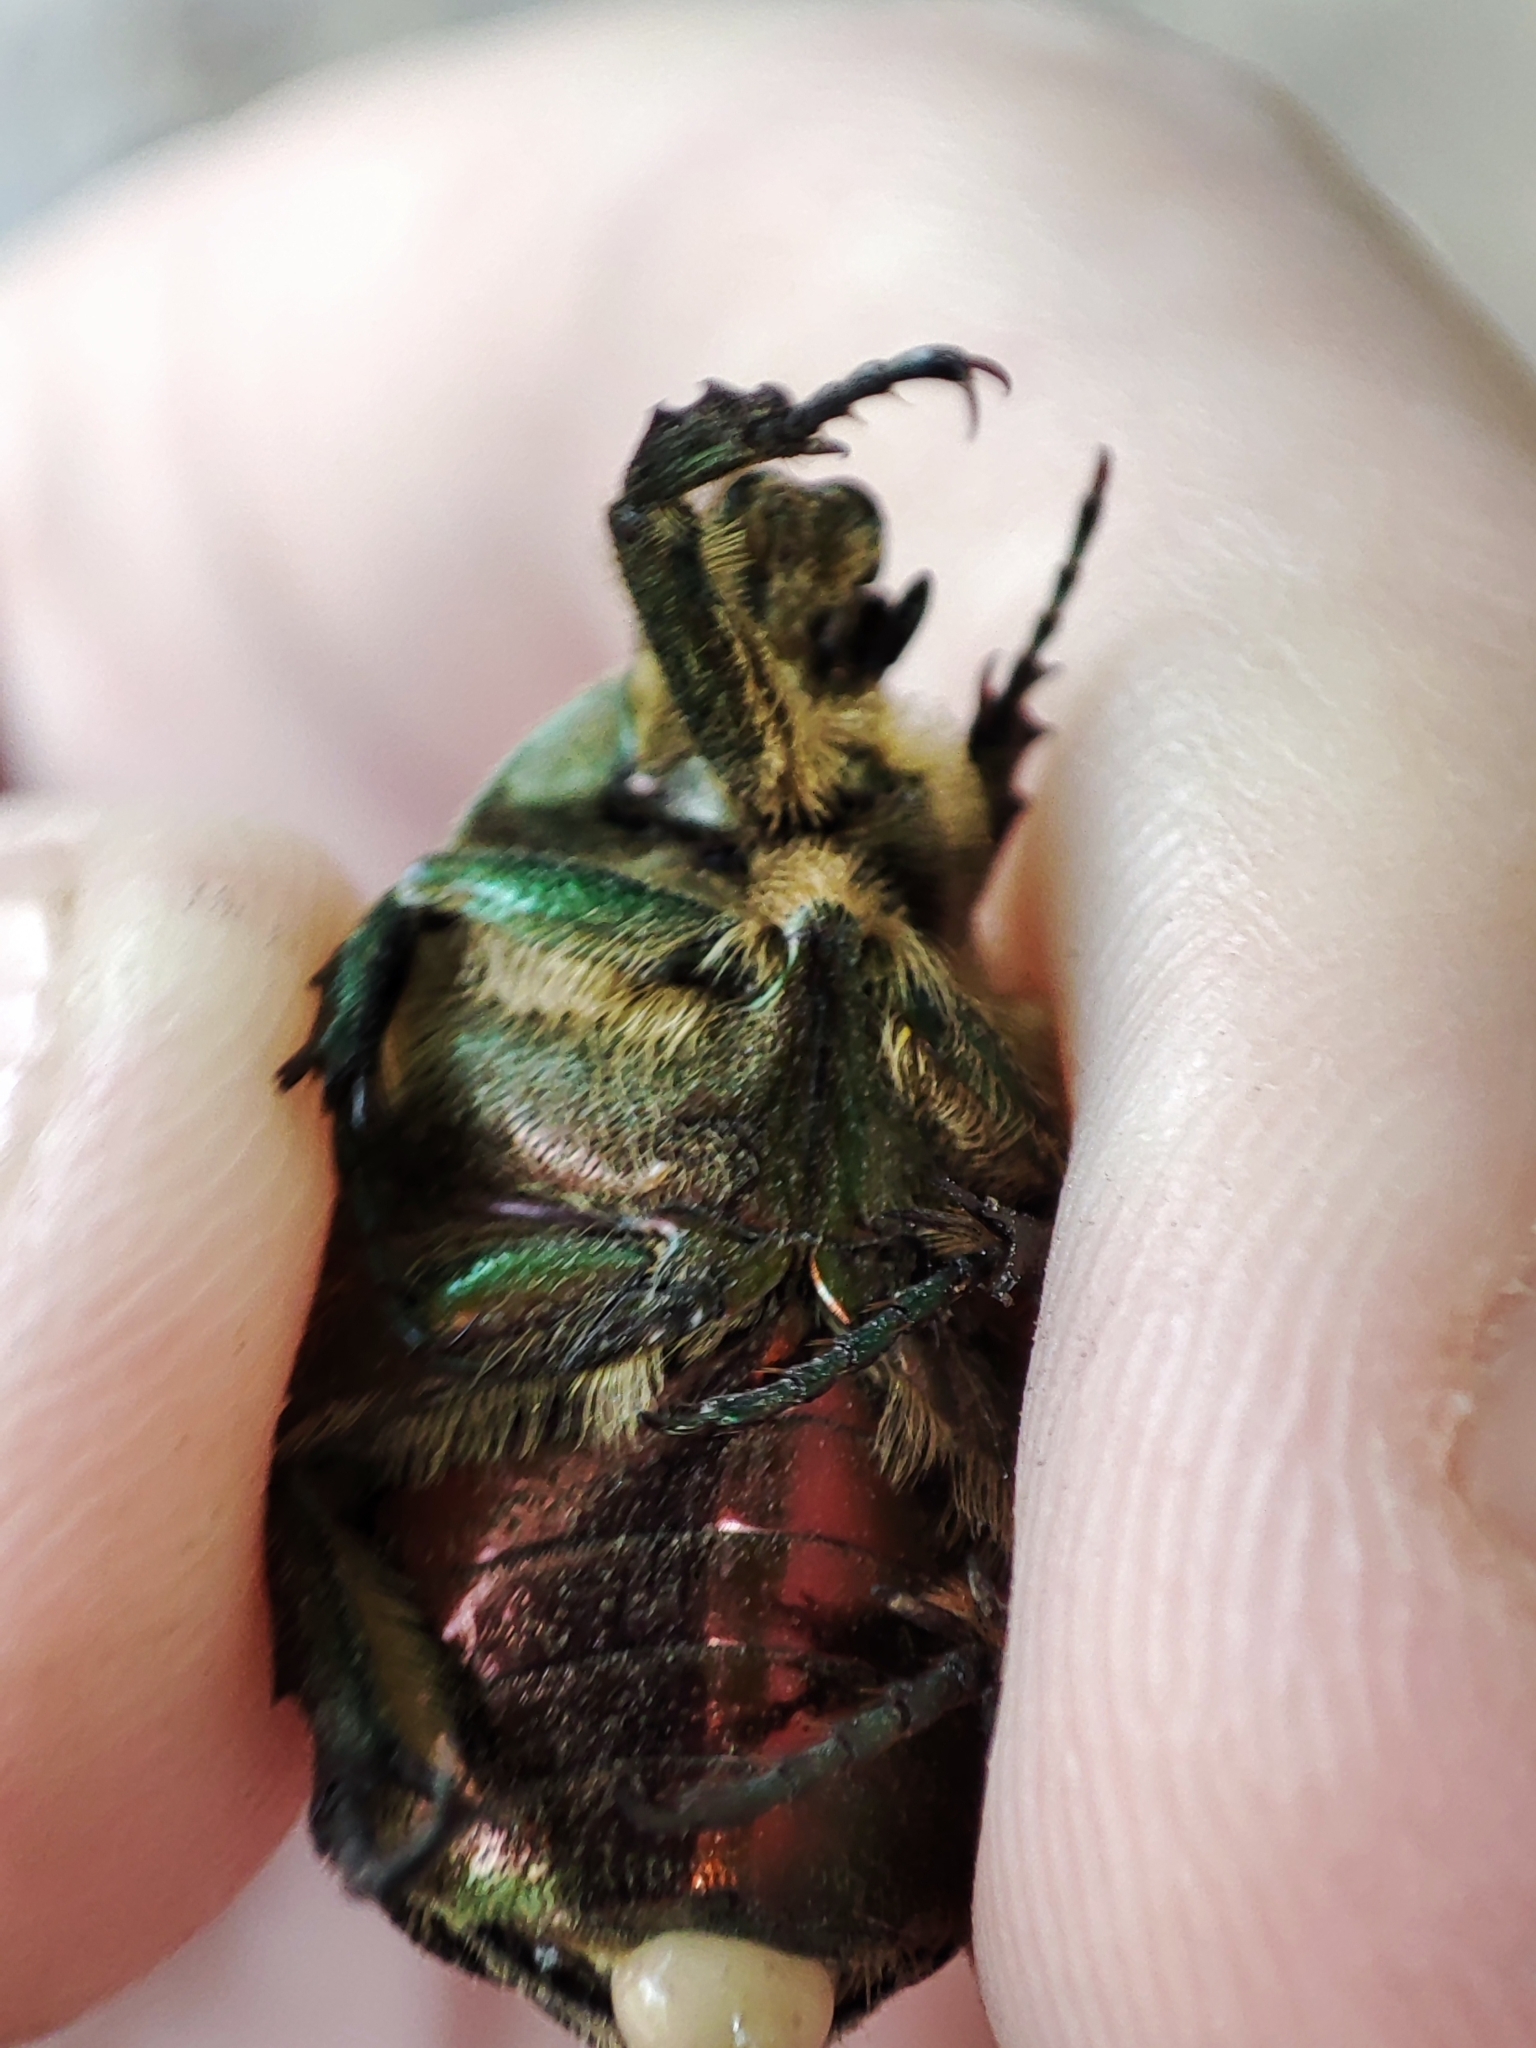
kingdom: Animalia
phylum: Arthropoda
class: Insecta
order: Coleoptera
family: Scarabaeidae
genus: Cetonia
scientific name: Cetonia aurata
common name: Rose chafer
